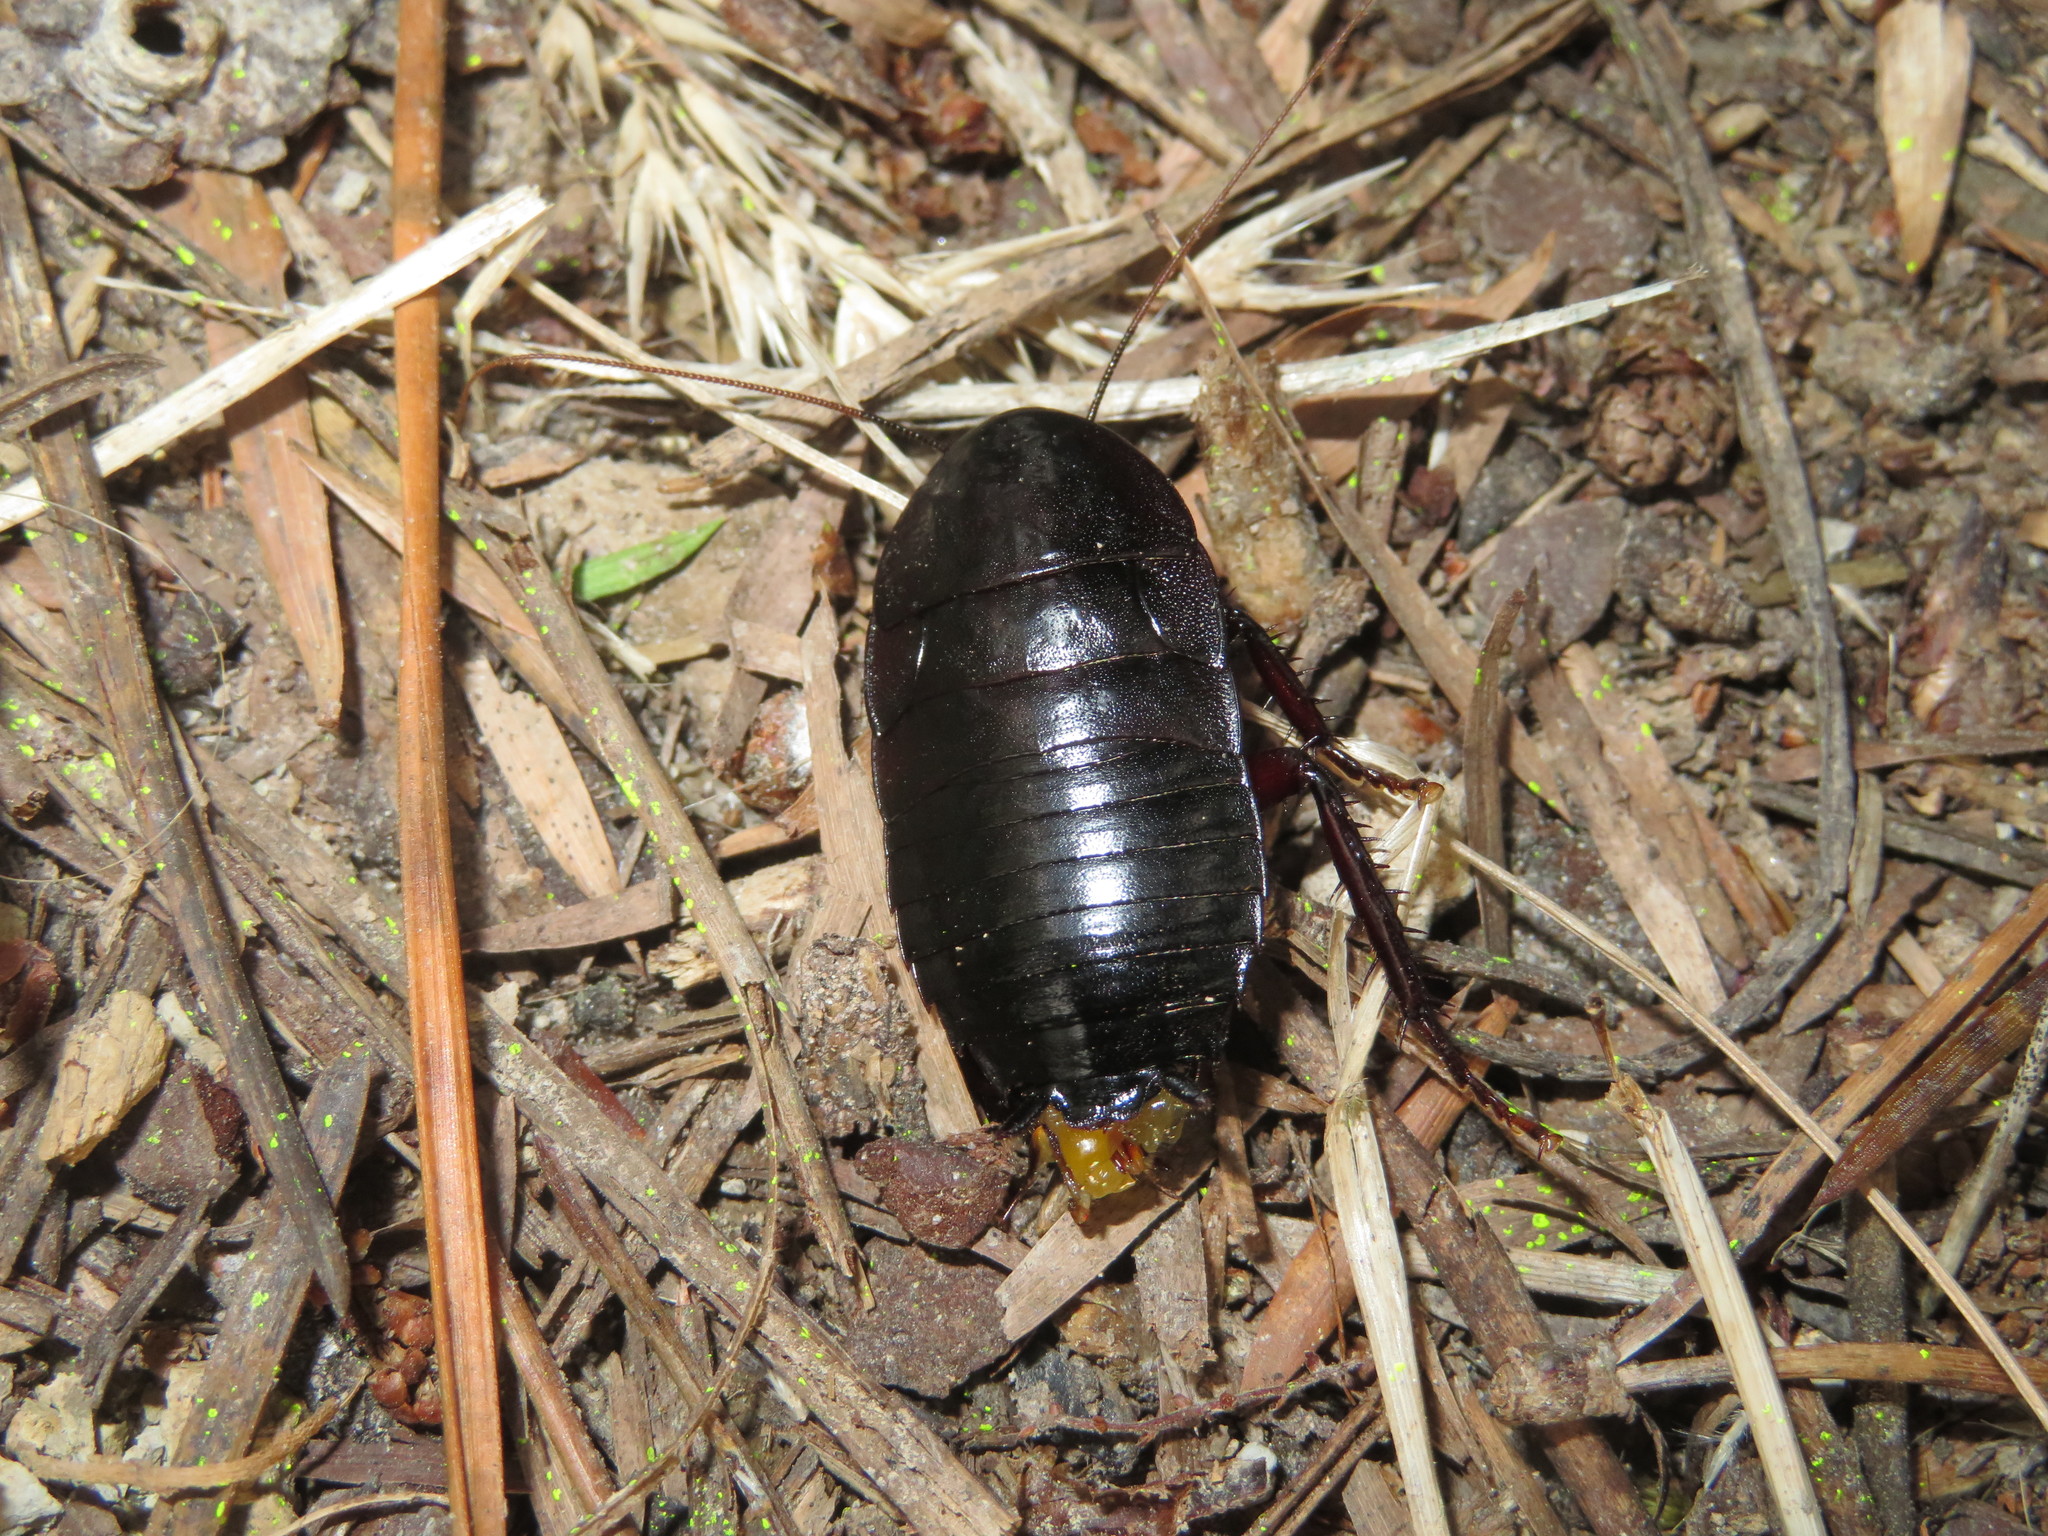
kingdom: Animalia
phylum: Arthropoda
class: Insecta
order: Blattodea
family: Blattidae
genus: Maoriblatta
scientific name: Maoriblatta rufoterminata
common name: Black cockroach
